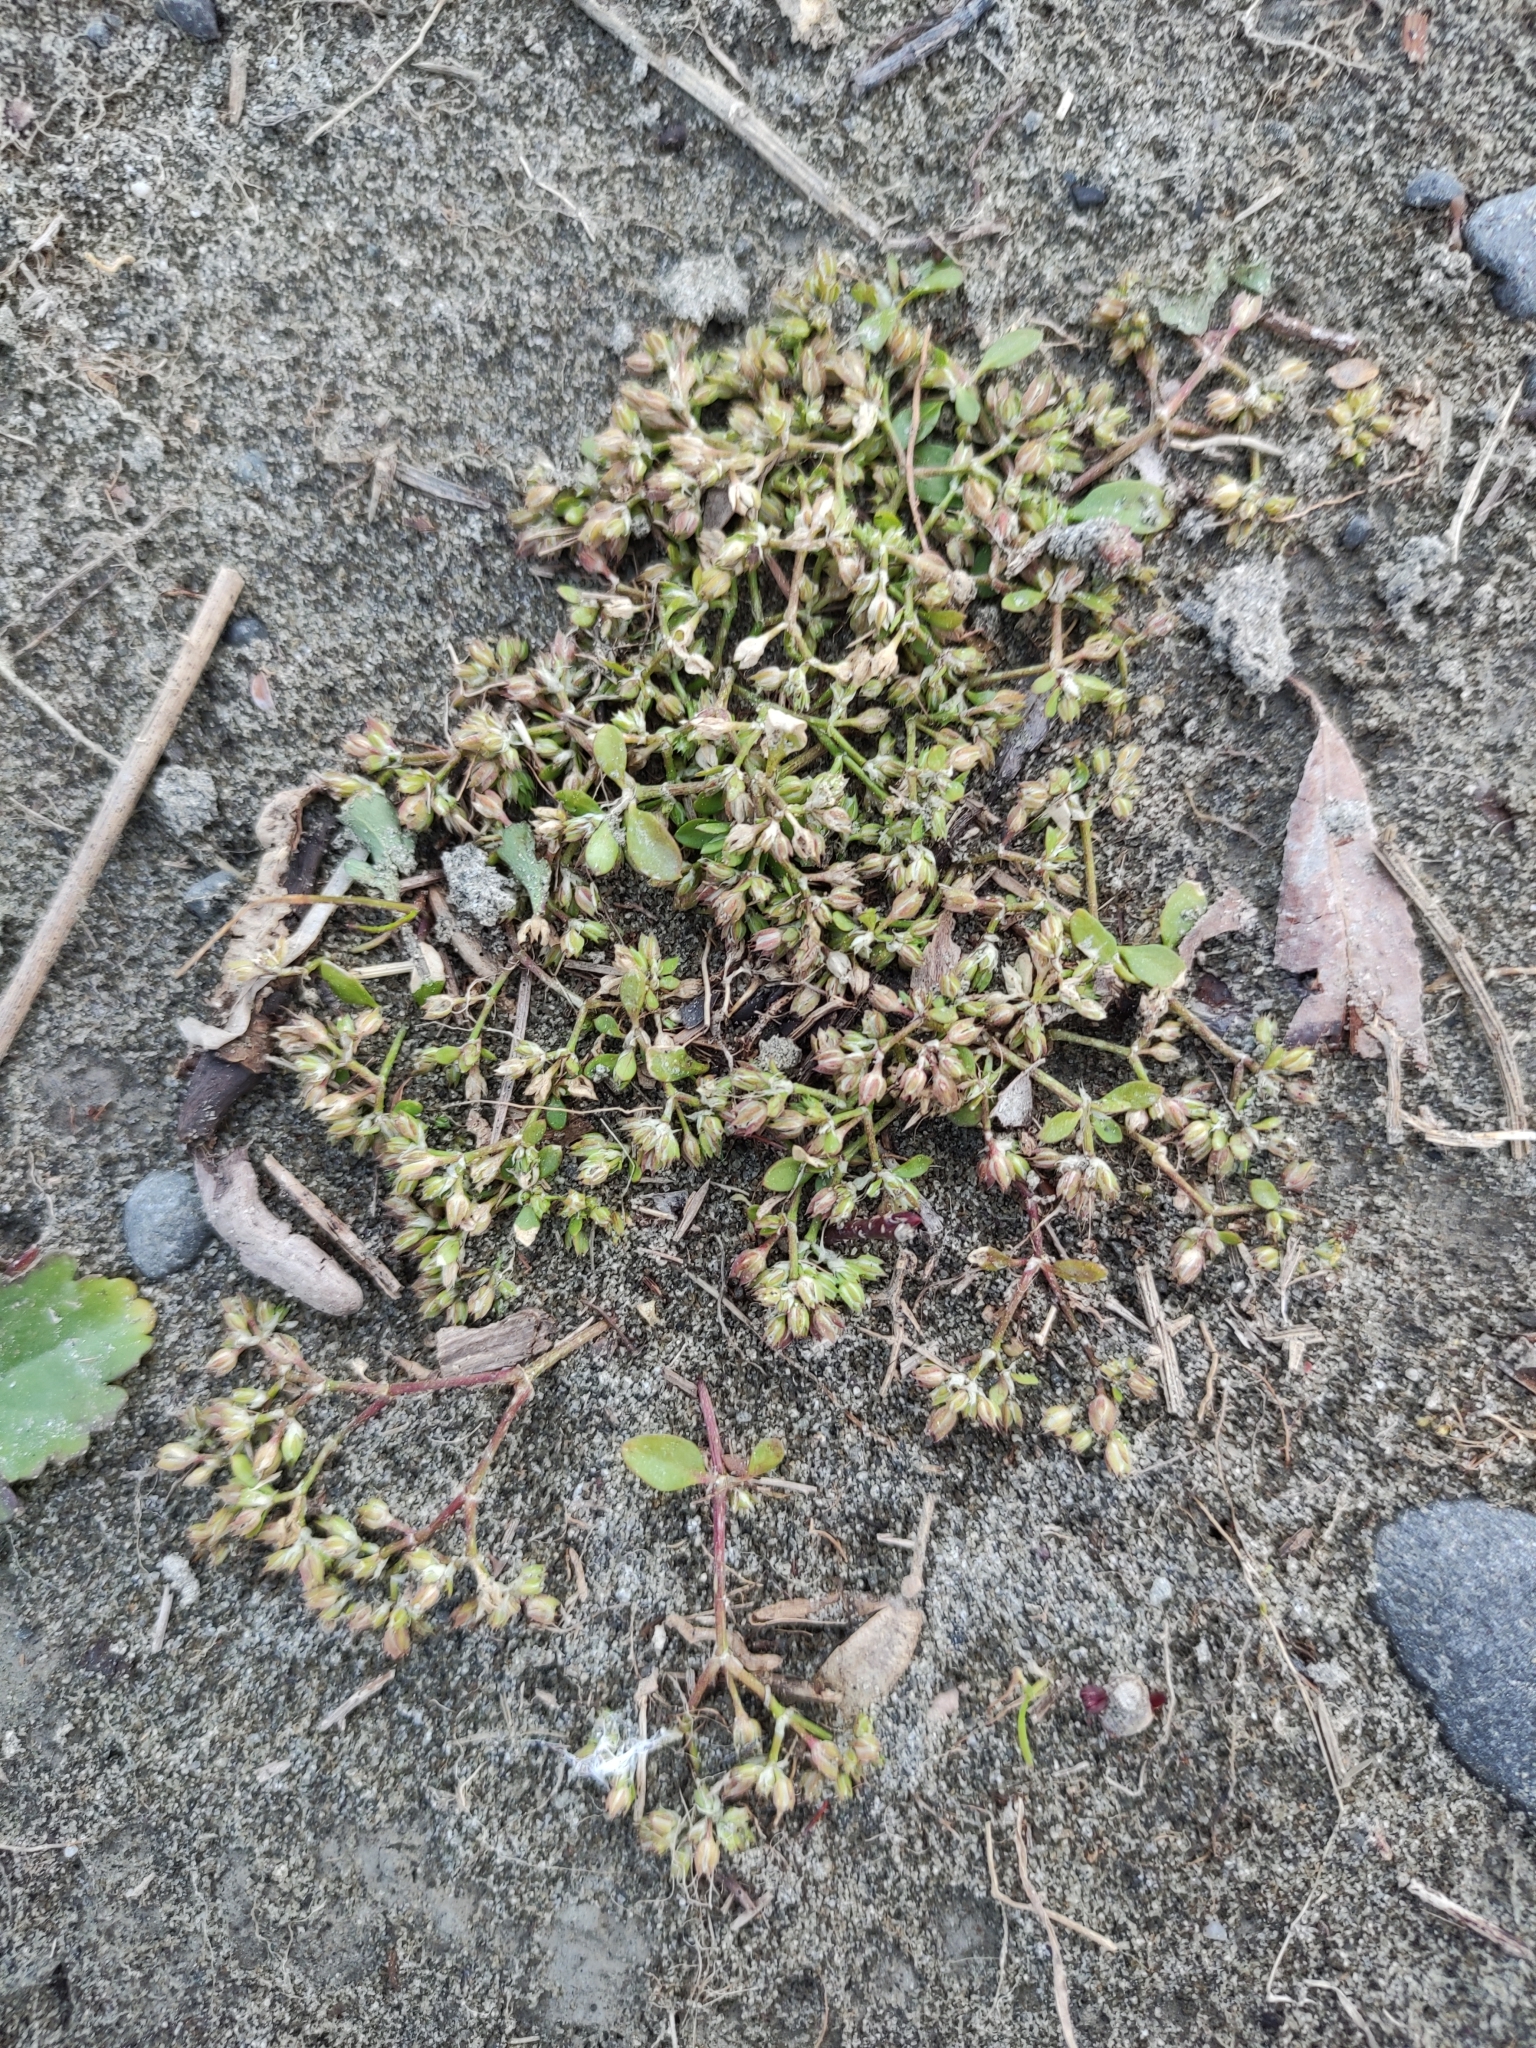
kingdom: Plantae
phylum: Tracheophyta
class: Magnoliopsida
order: Caryophyllales
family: Caryophyllaceae
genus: Polycarpon
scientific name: Polycarpon tetraphyllum
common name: Four-leaved all-seed
